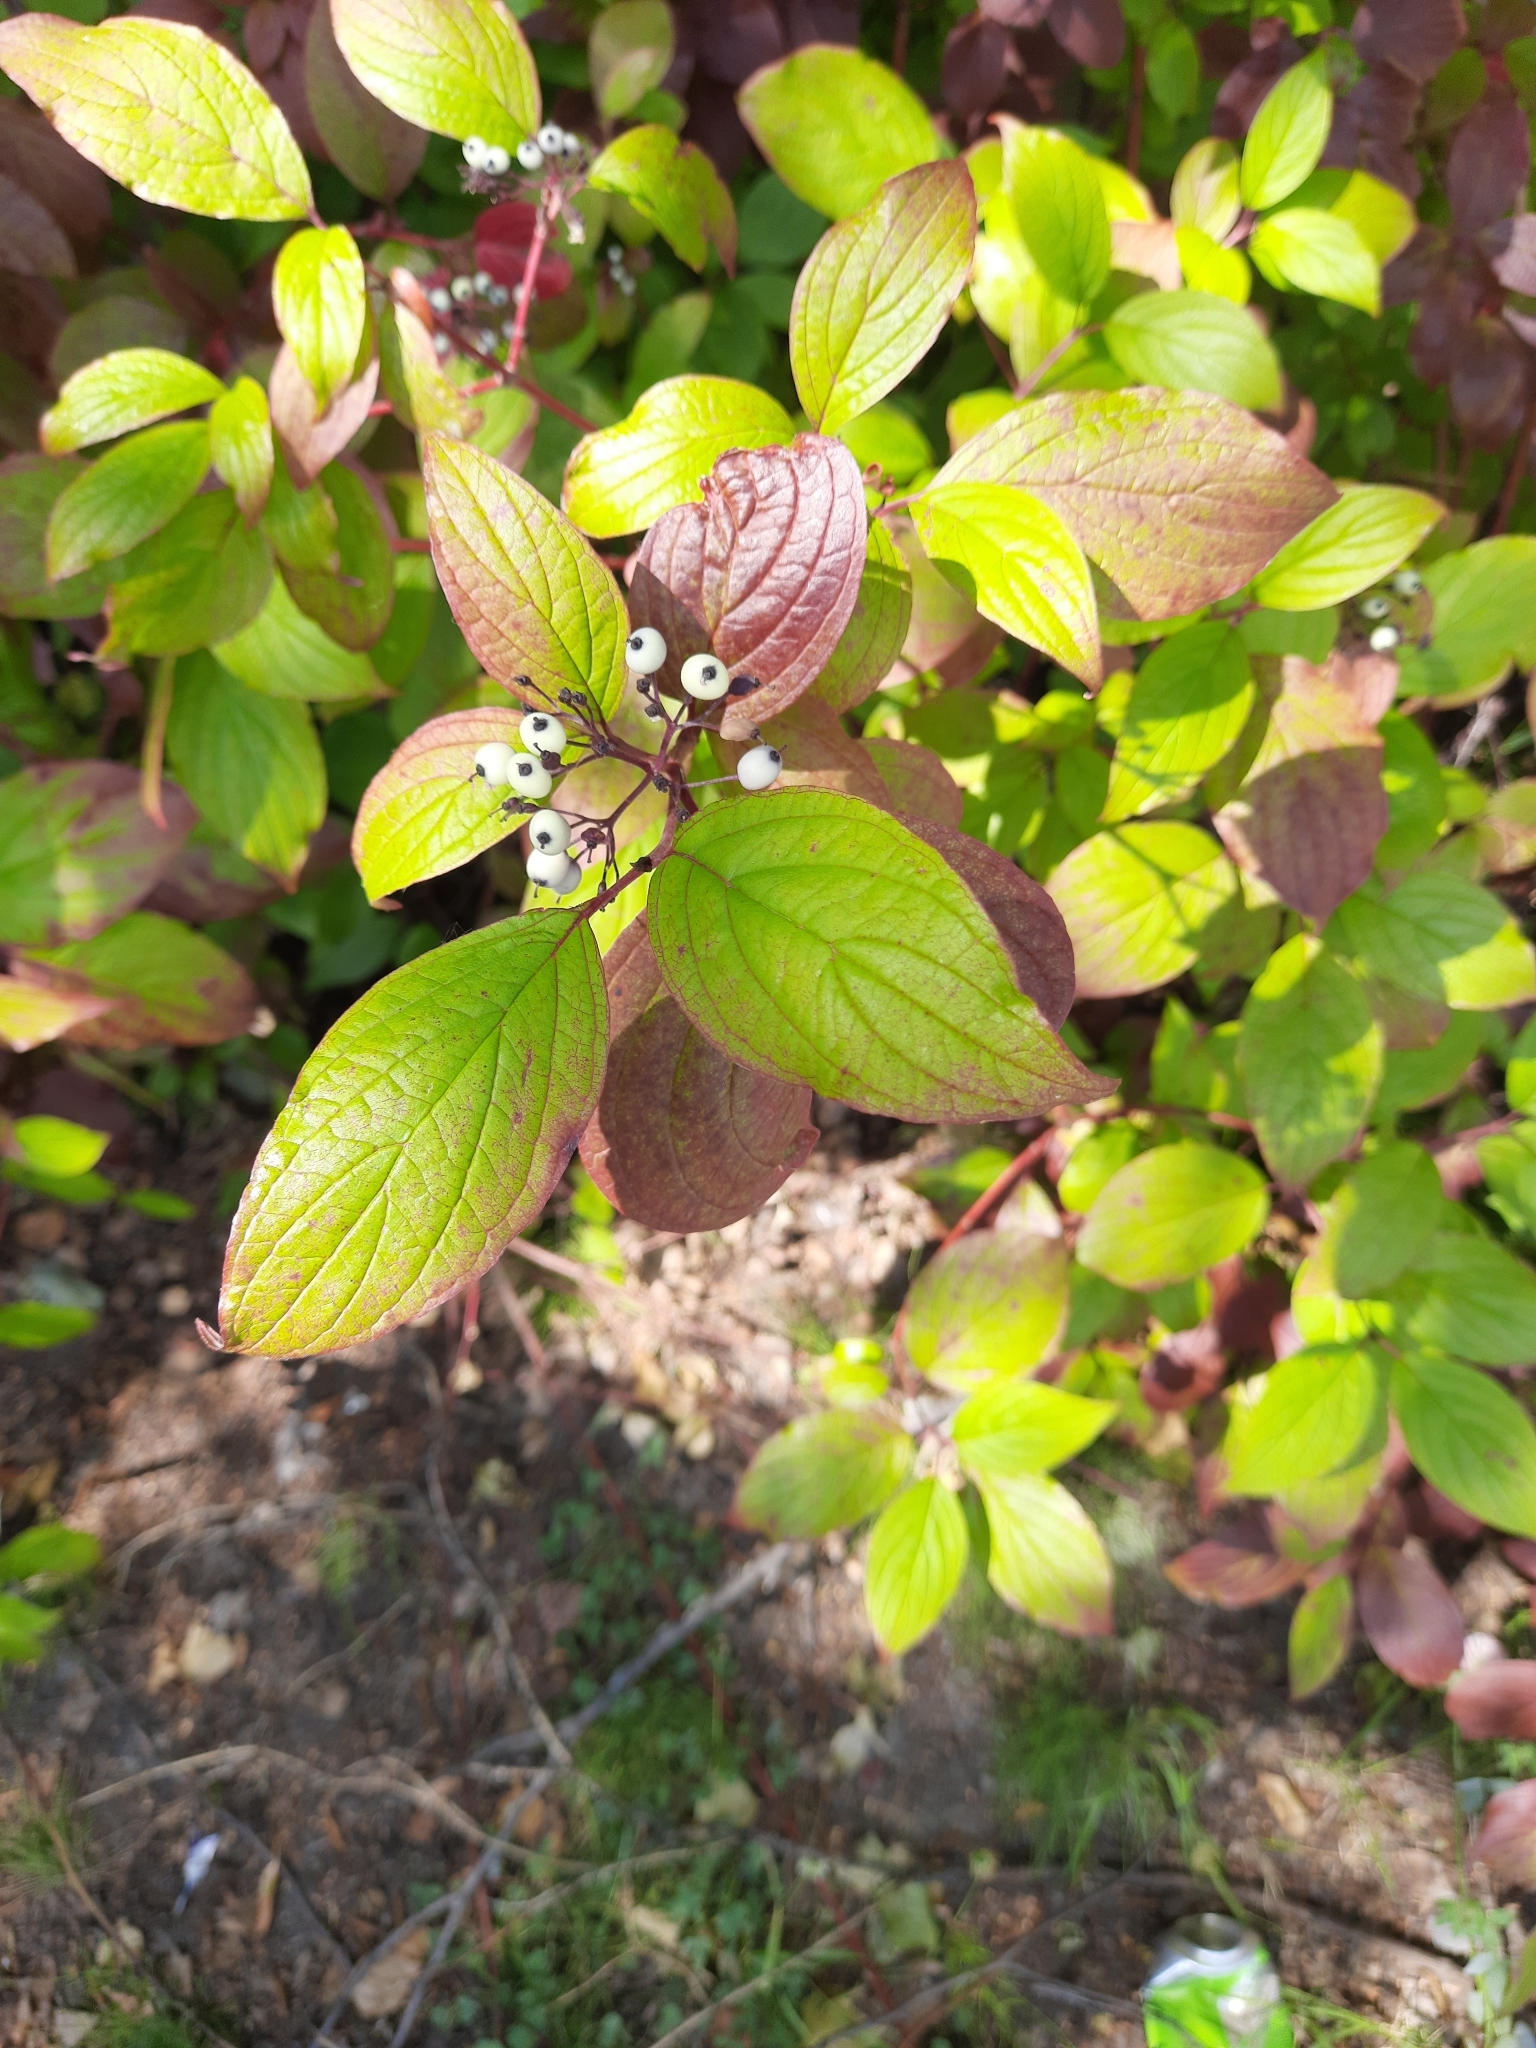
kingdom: Plantae
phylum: Tracheophyta
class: Magnoliopsida
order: Cornales
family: Cornaceae
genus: Cornus
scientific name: Cornus alba
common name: White dogwood
